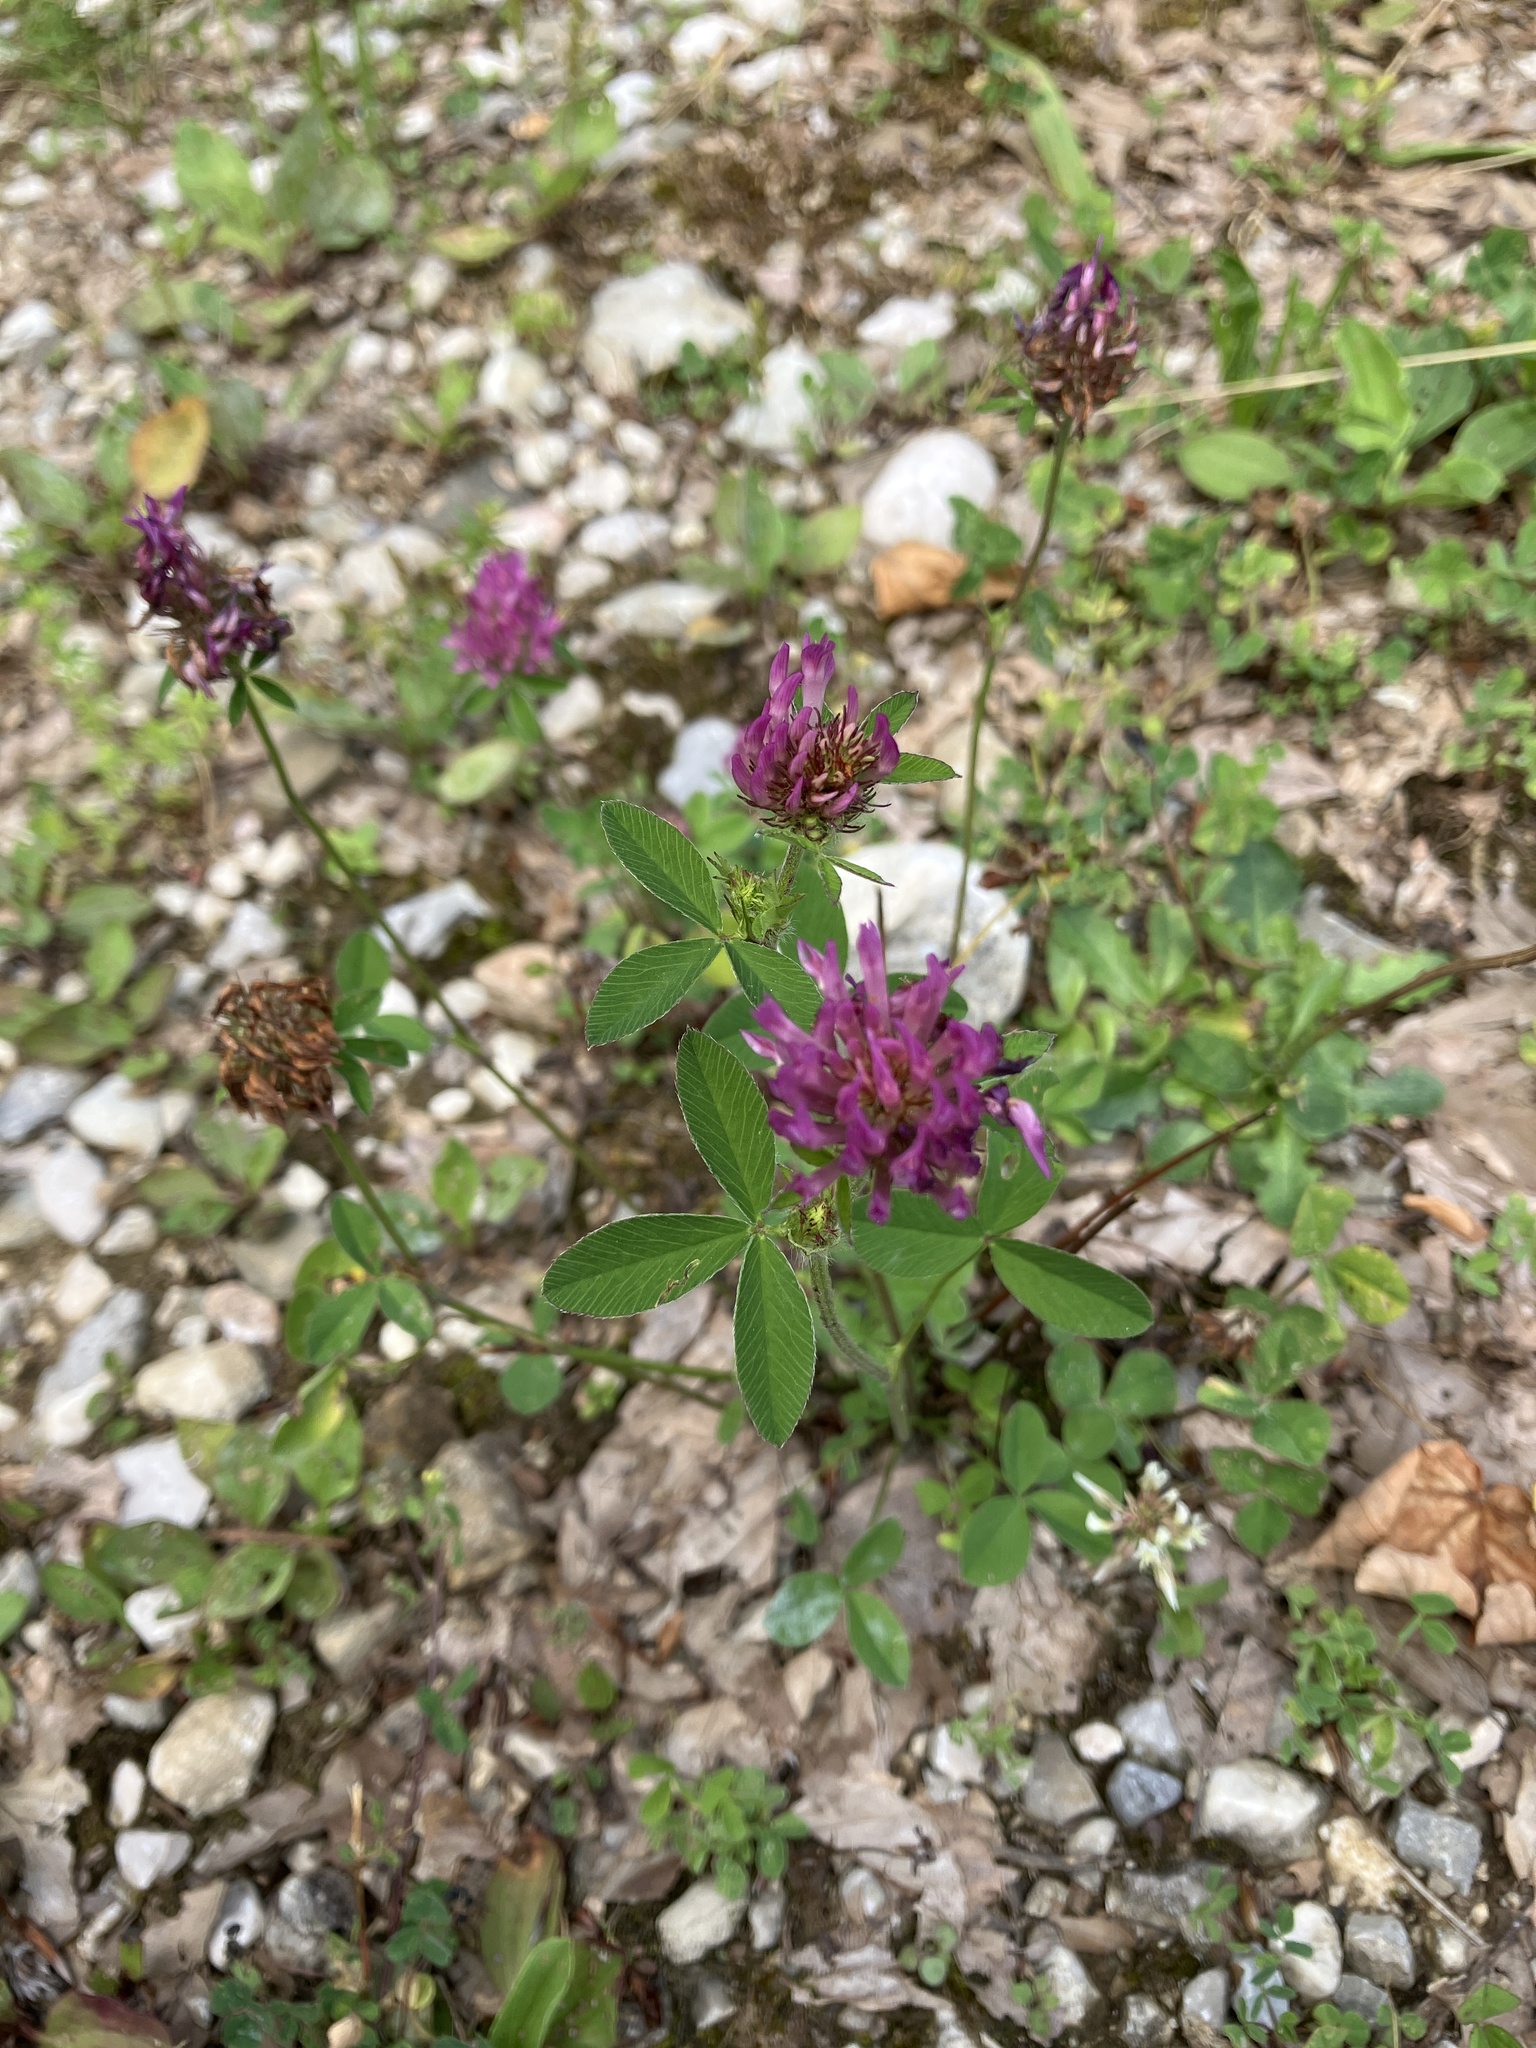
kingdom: Plantae
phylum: Tracheophyta
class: Magnoliopsida
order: Fabales
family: Fabaceae
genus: Trifolium
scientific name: Trifolium pratense
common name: Red clover
